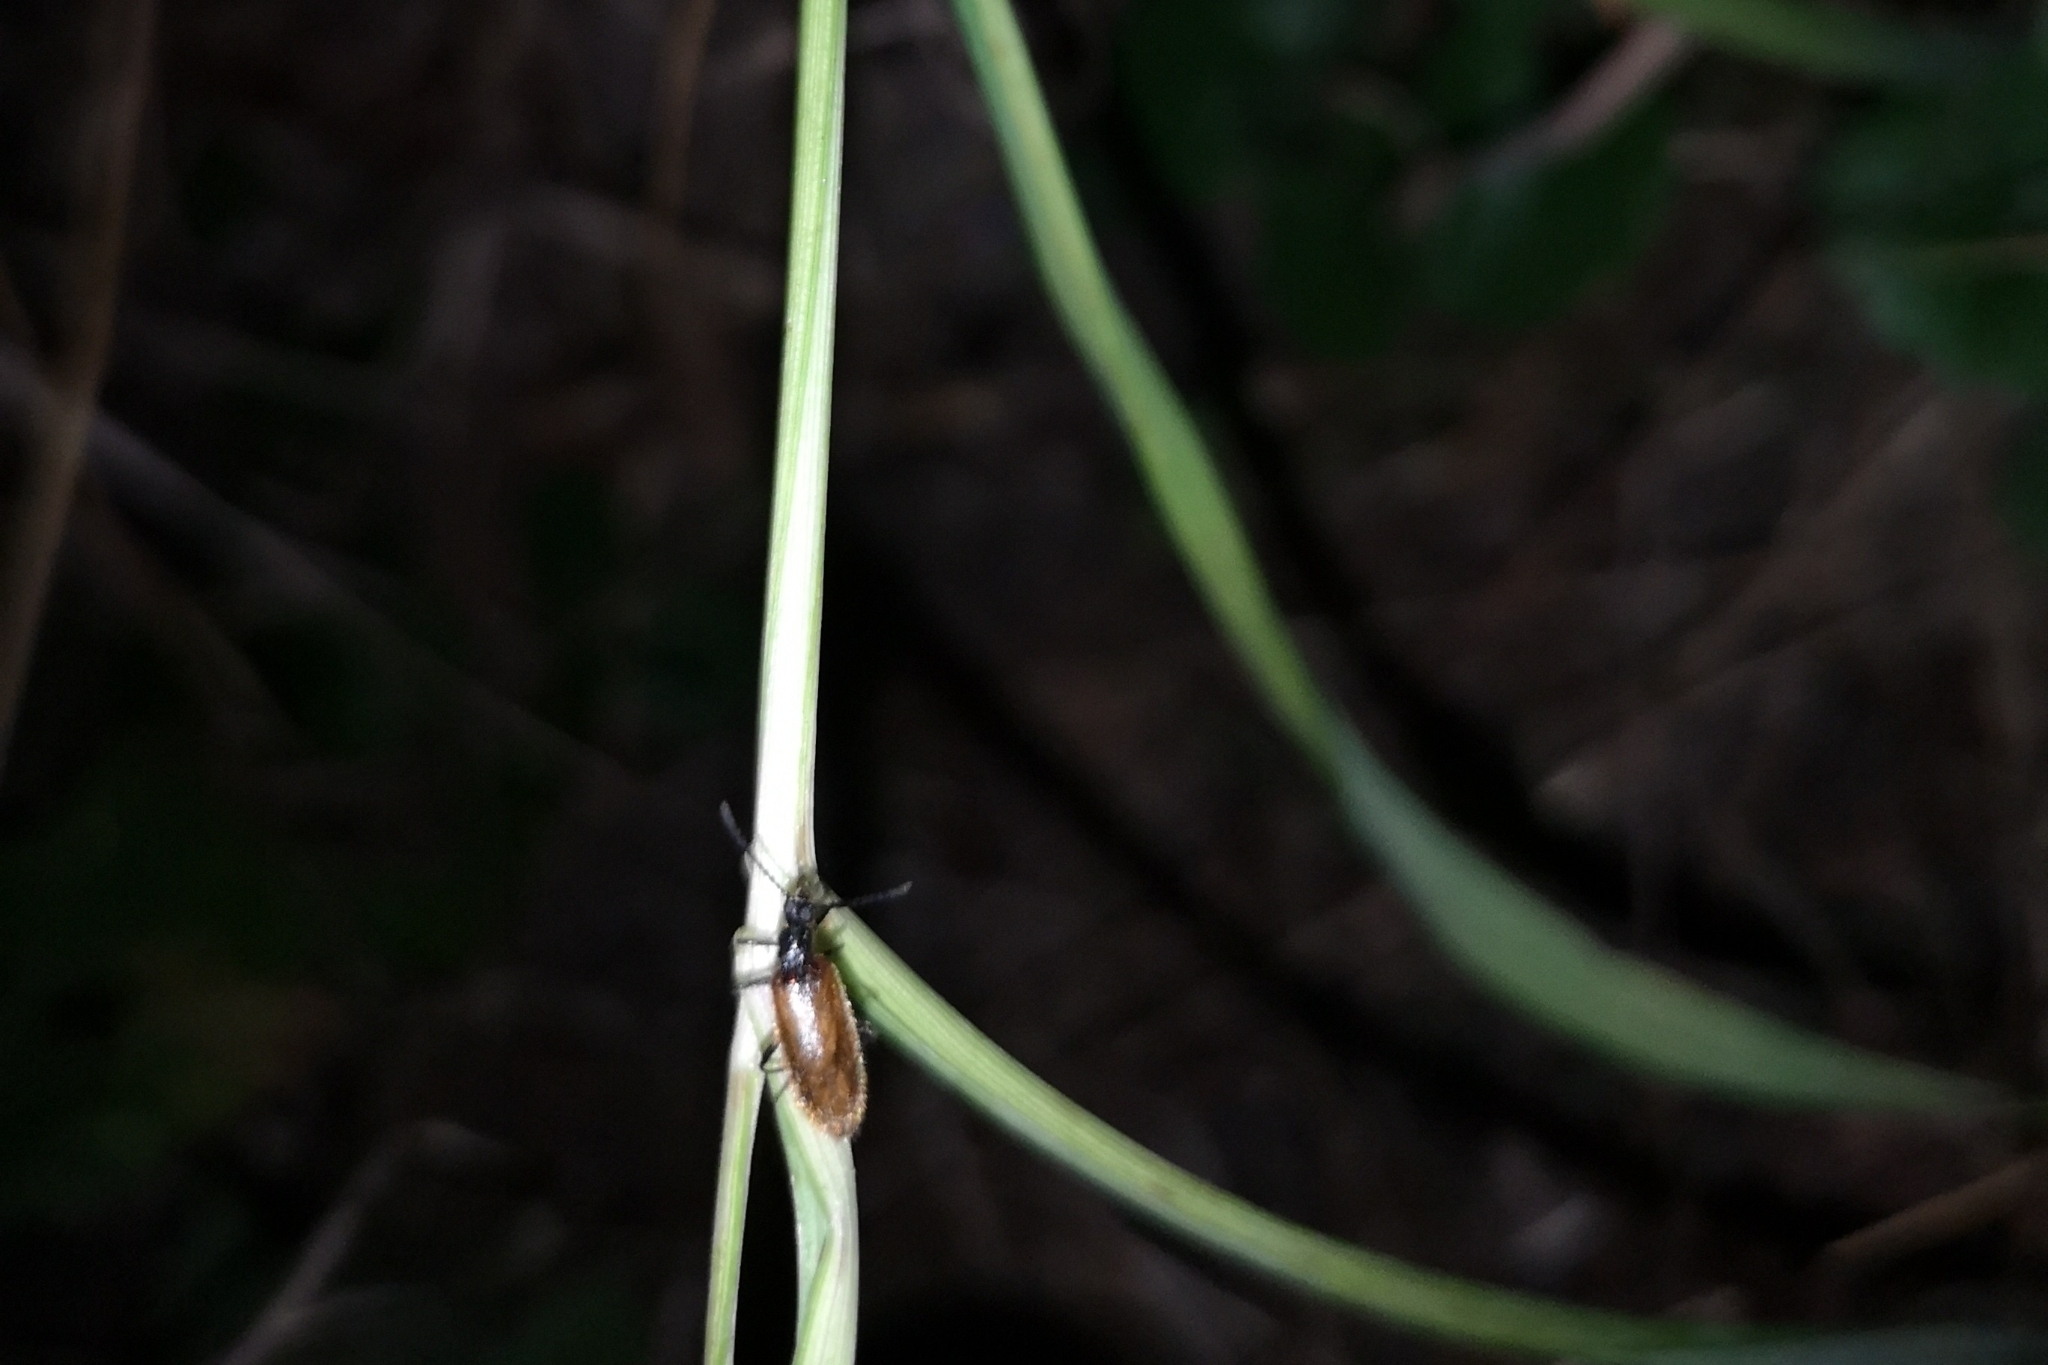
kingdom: Animalia
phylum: Arthropoda
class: Insecta
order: Coleoptera
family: Tenebrionidae
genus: Lagria
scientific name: Lagria hirta
